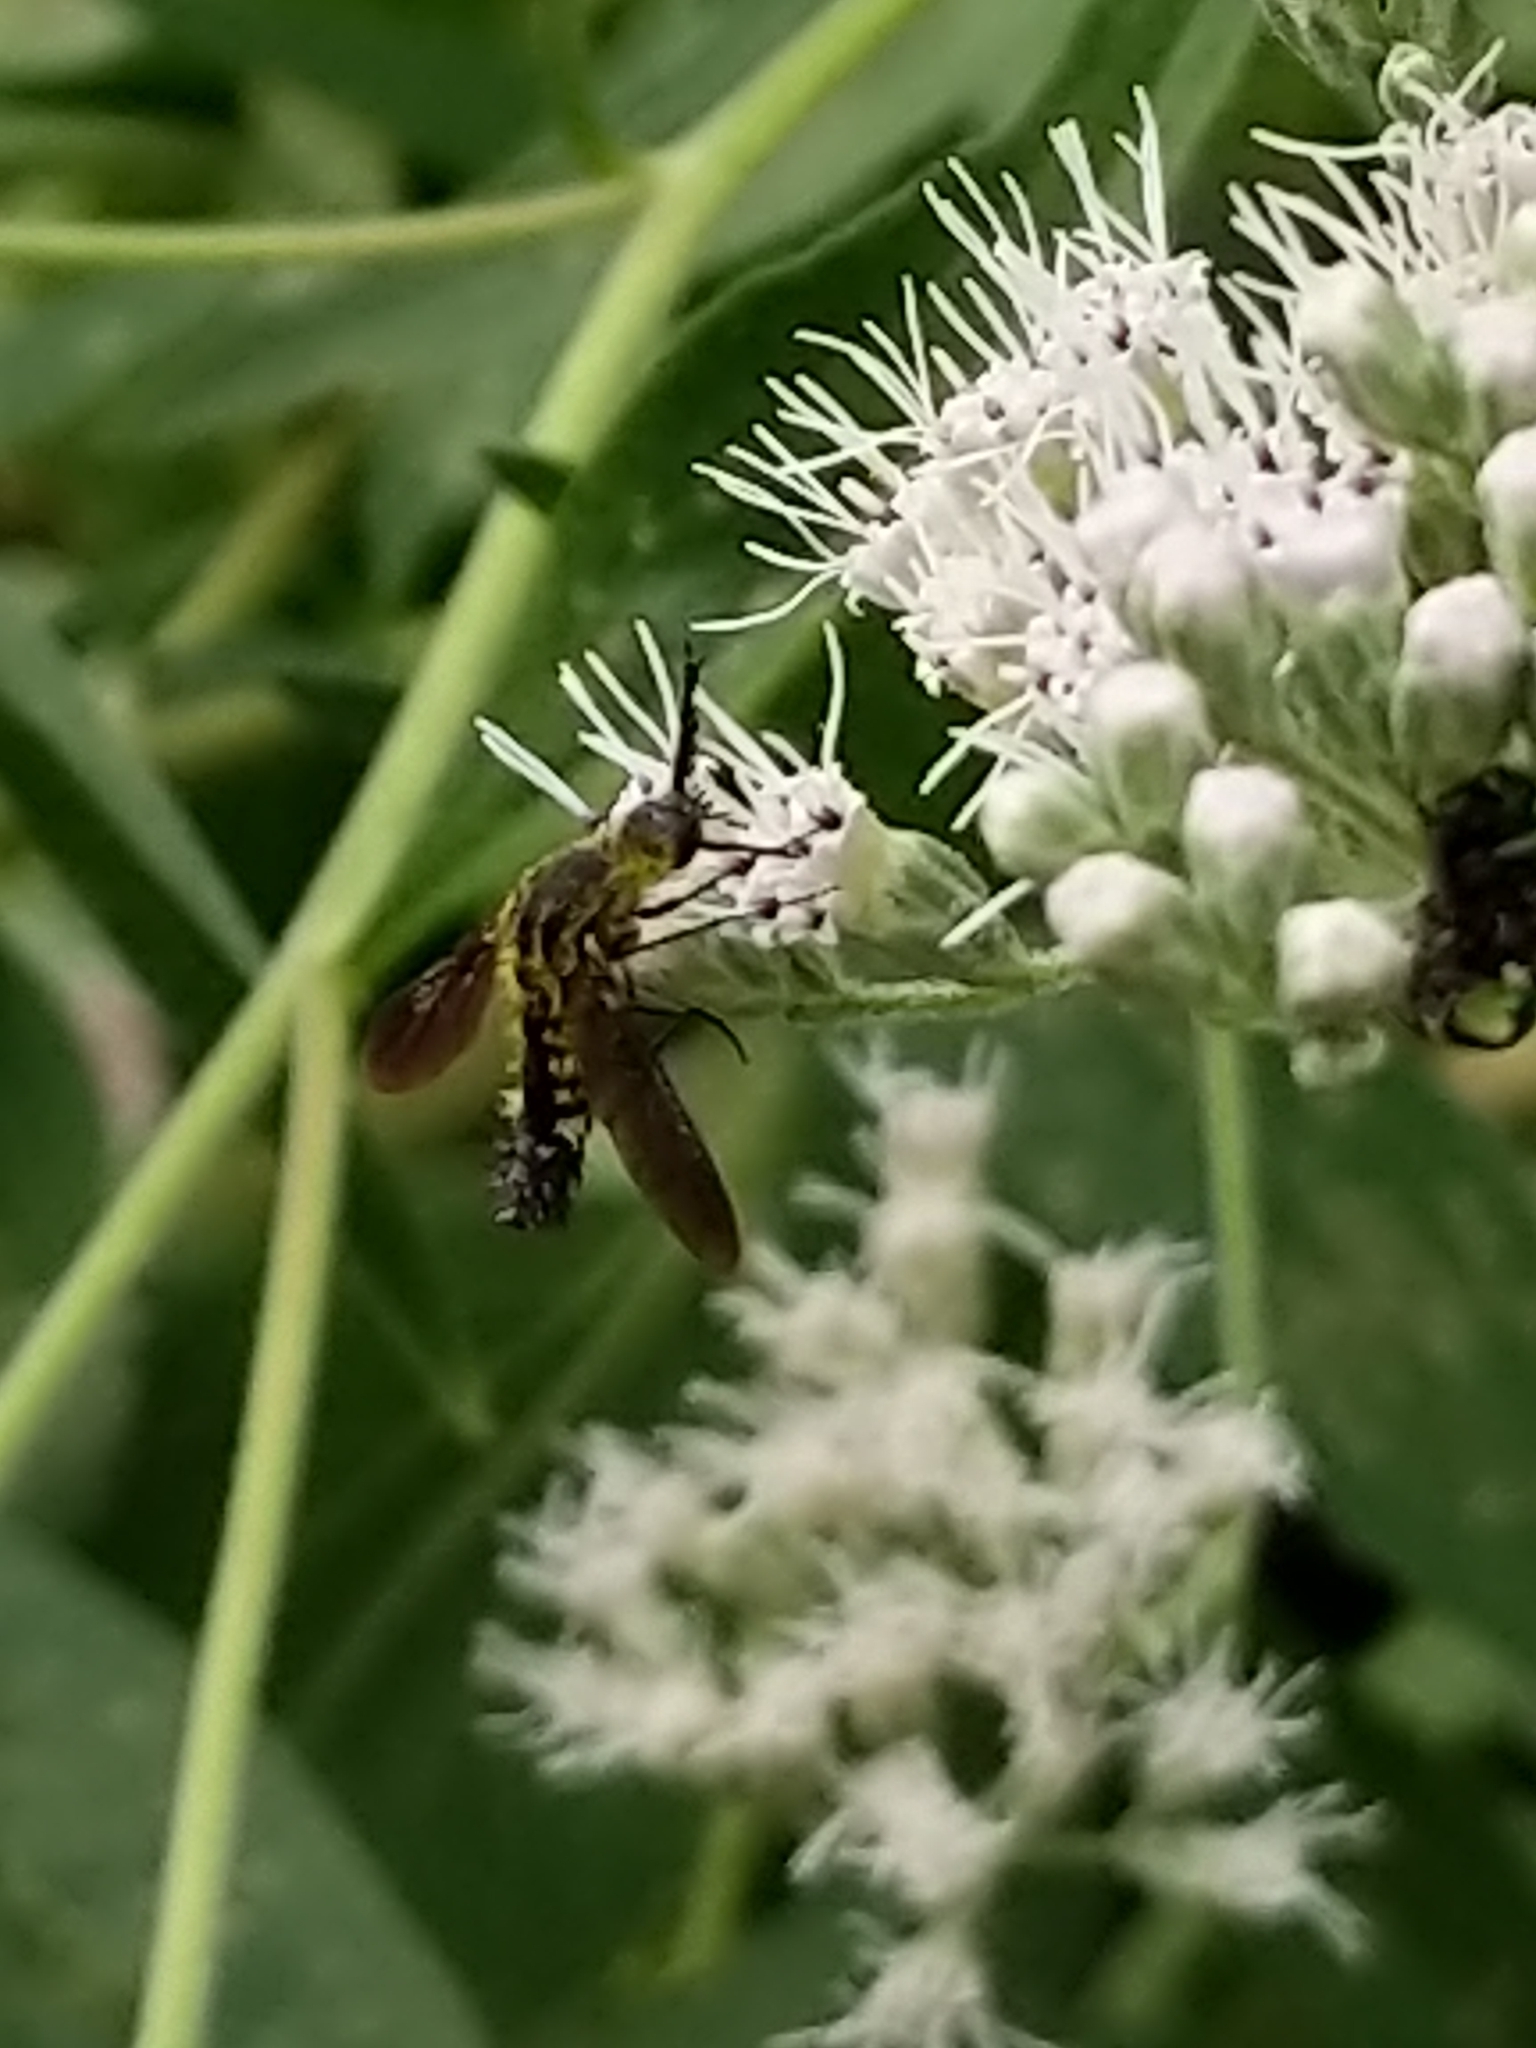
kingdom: Animalia
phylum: Arthropoda
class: Insecta
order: Diptera
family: Bombyliidae
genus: Lepidophora
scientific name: Lepidophora lutea
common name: Hunchback bee fly
